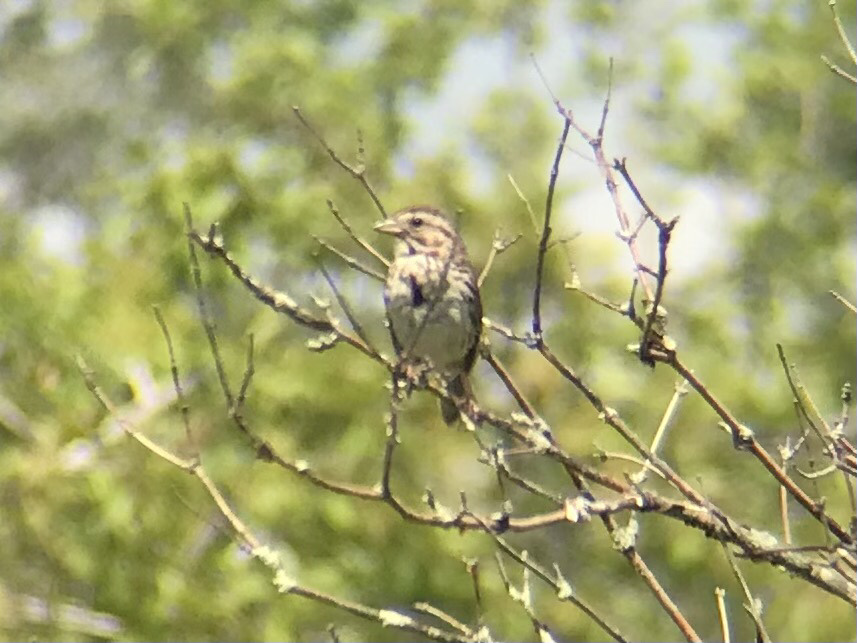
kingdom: Animalia
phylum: Chordata
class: Aves
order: Passeriformes
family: Passerellidae
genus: Melospiza
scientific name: Melospiza melodia
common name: Song sparrow
